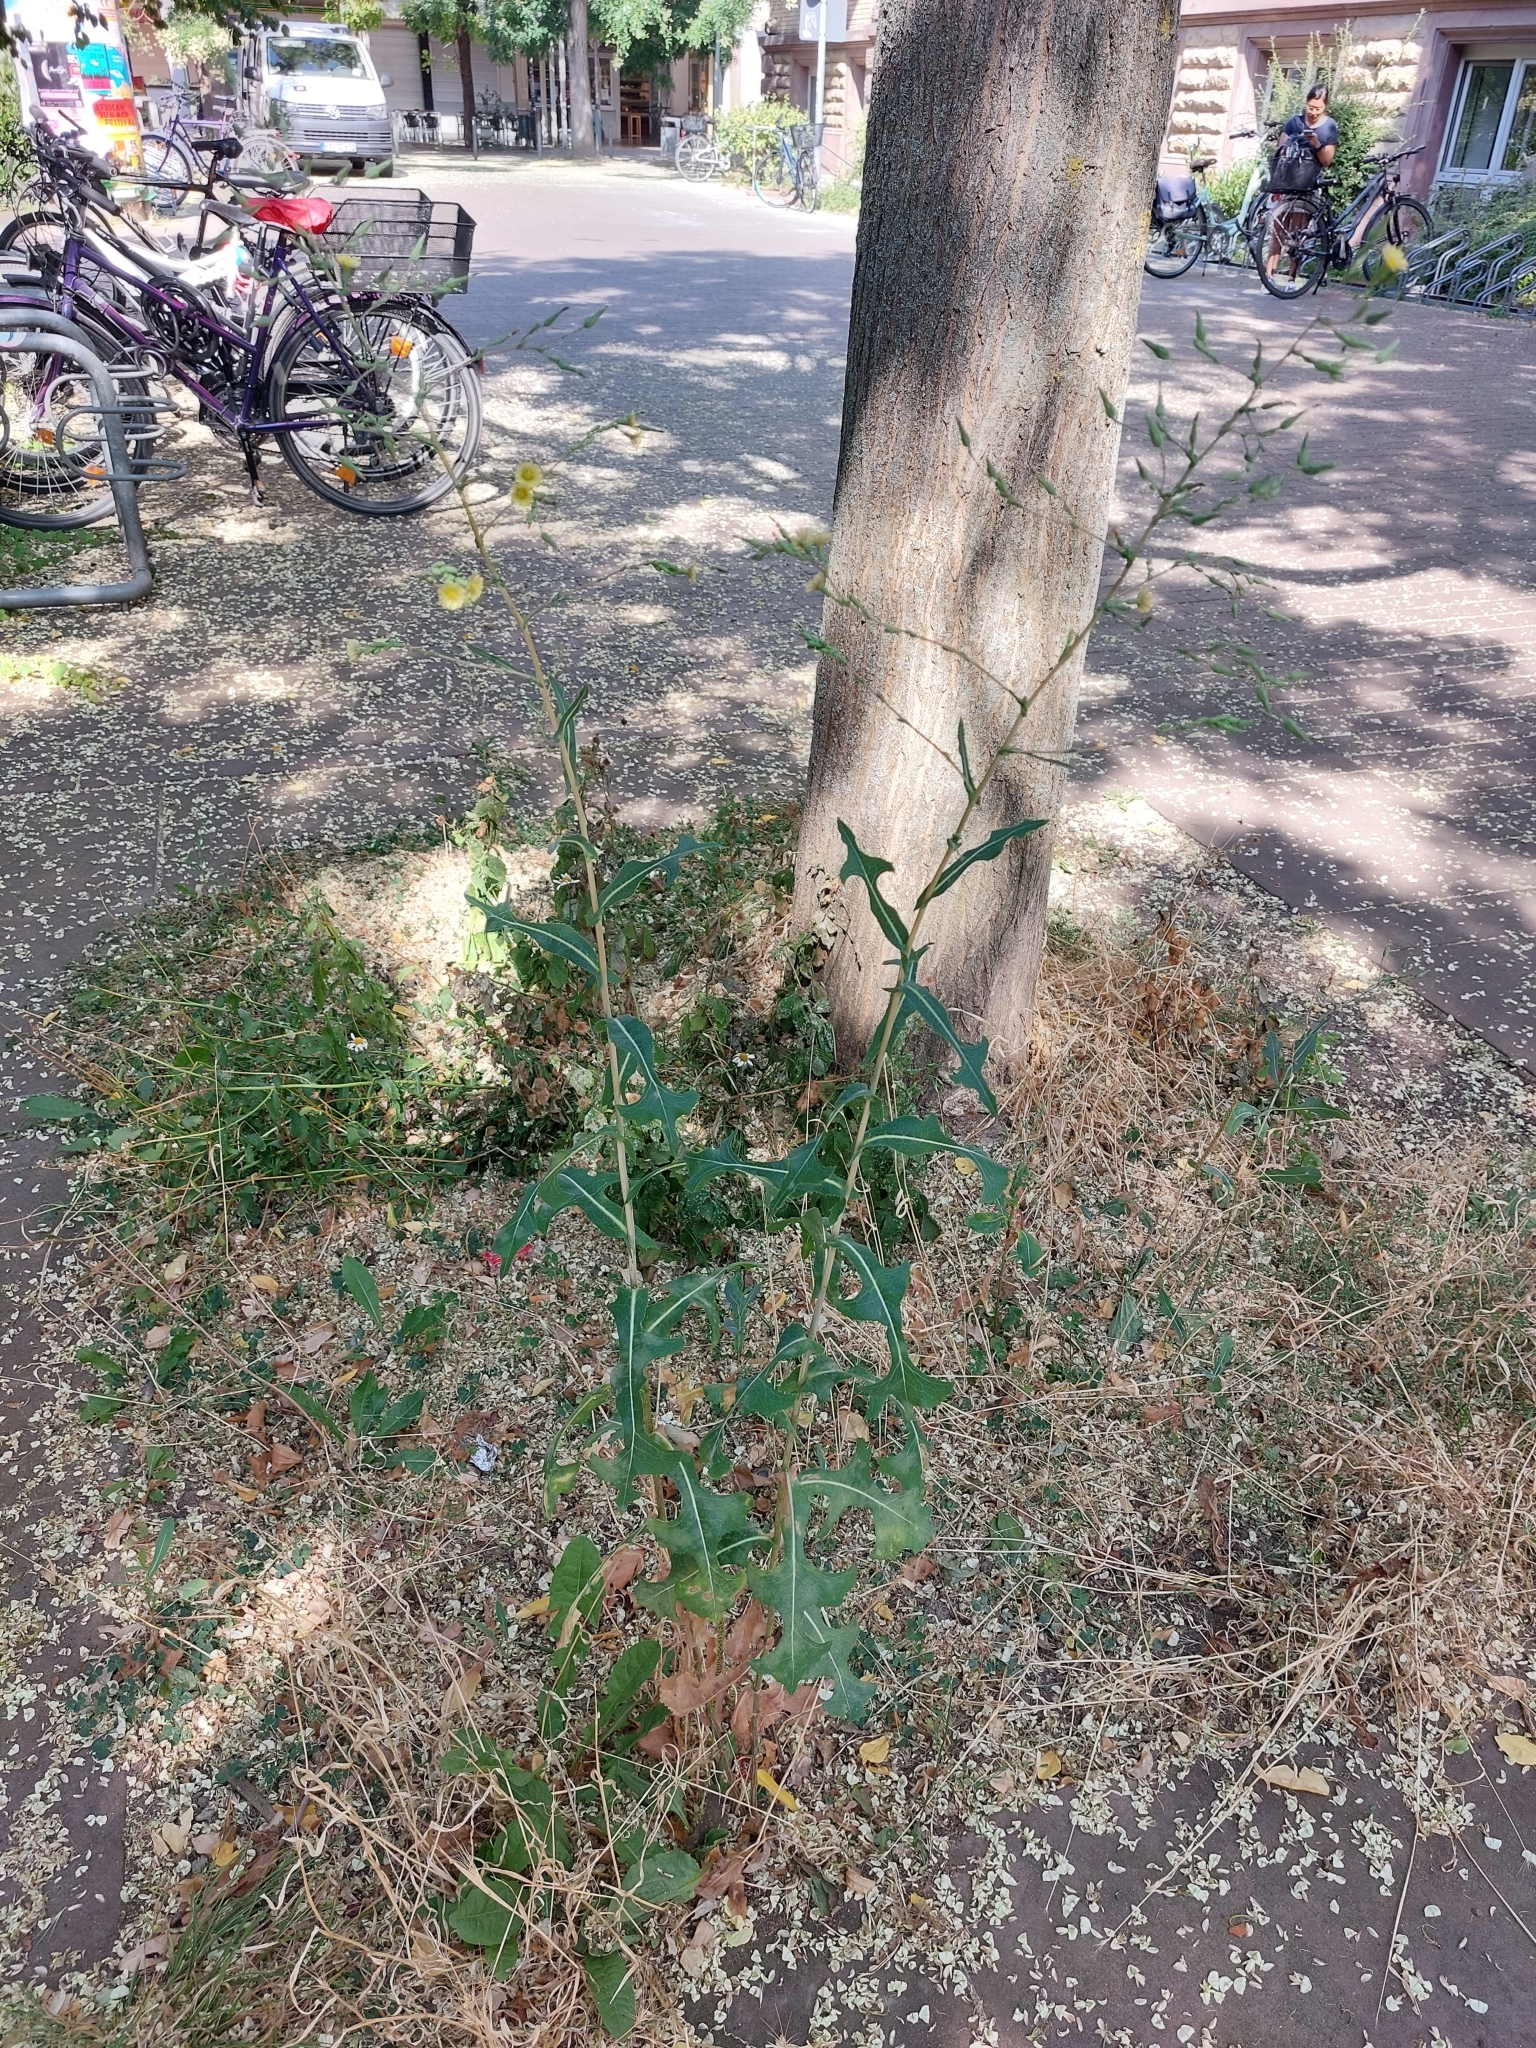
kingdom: Plantae
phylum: Tracheophyta
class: Magnoliopsida
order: Asterales
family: Asteraceae
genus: Lactuca
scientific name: Lactuca serriola
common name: Prickly lettuce
